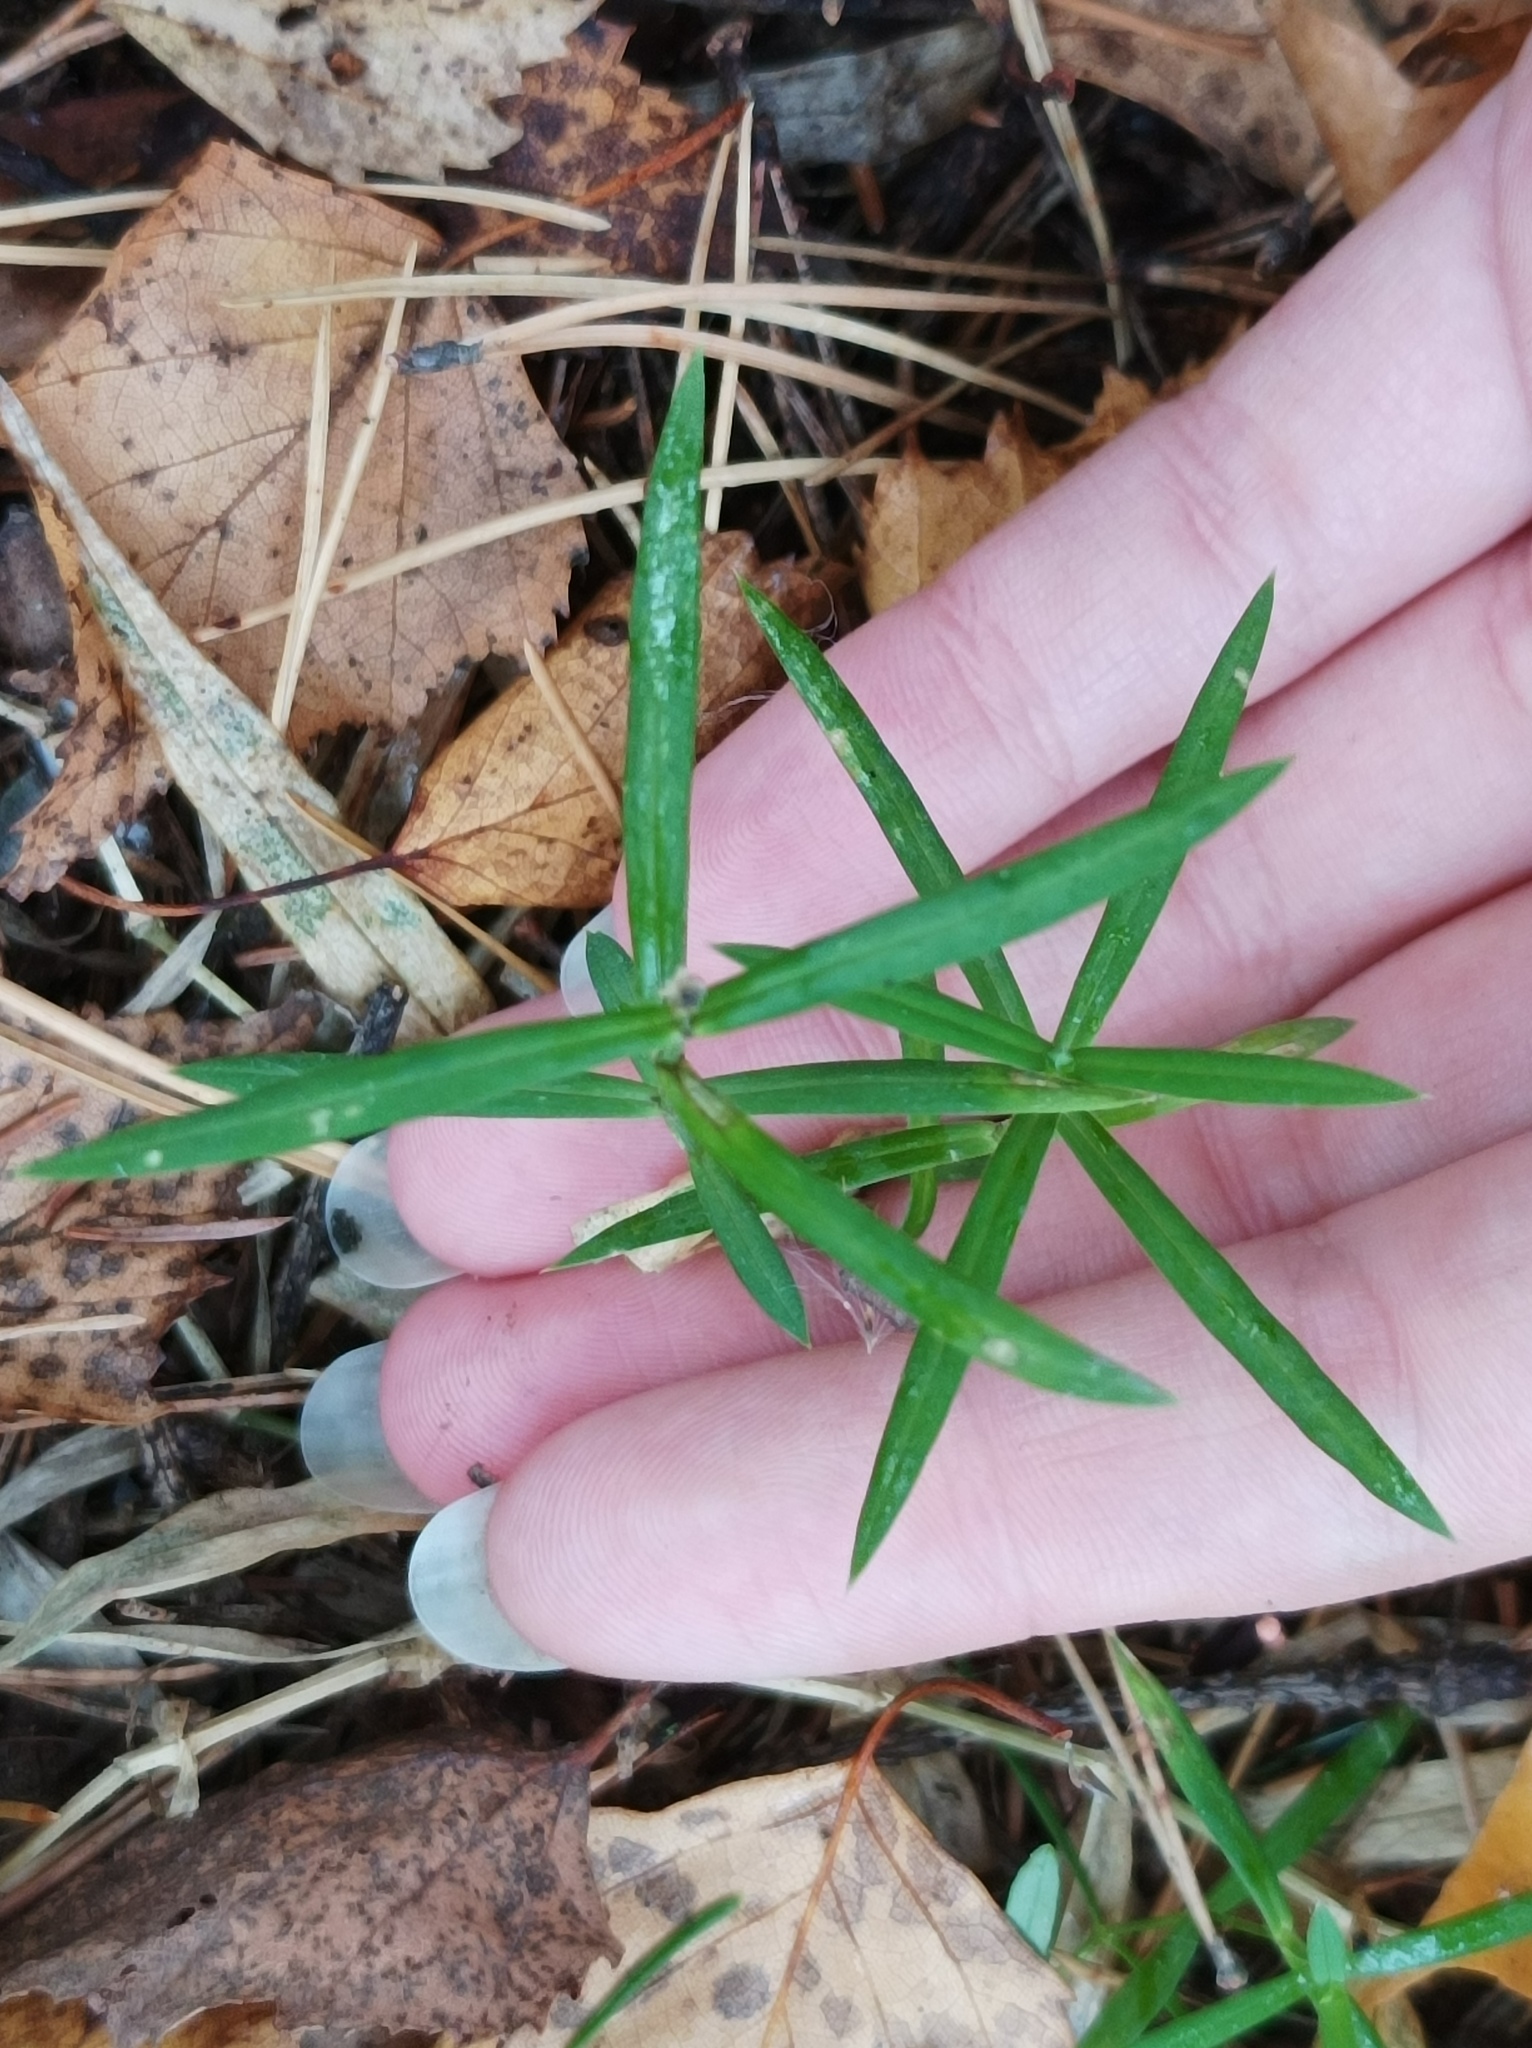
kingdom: Plantae
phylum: Tracheophyta
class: Magnoliopsida
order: Caryophyllales
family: Caryophyllaceae
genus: Rabelera
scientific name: Rabelera holostea
